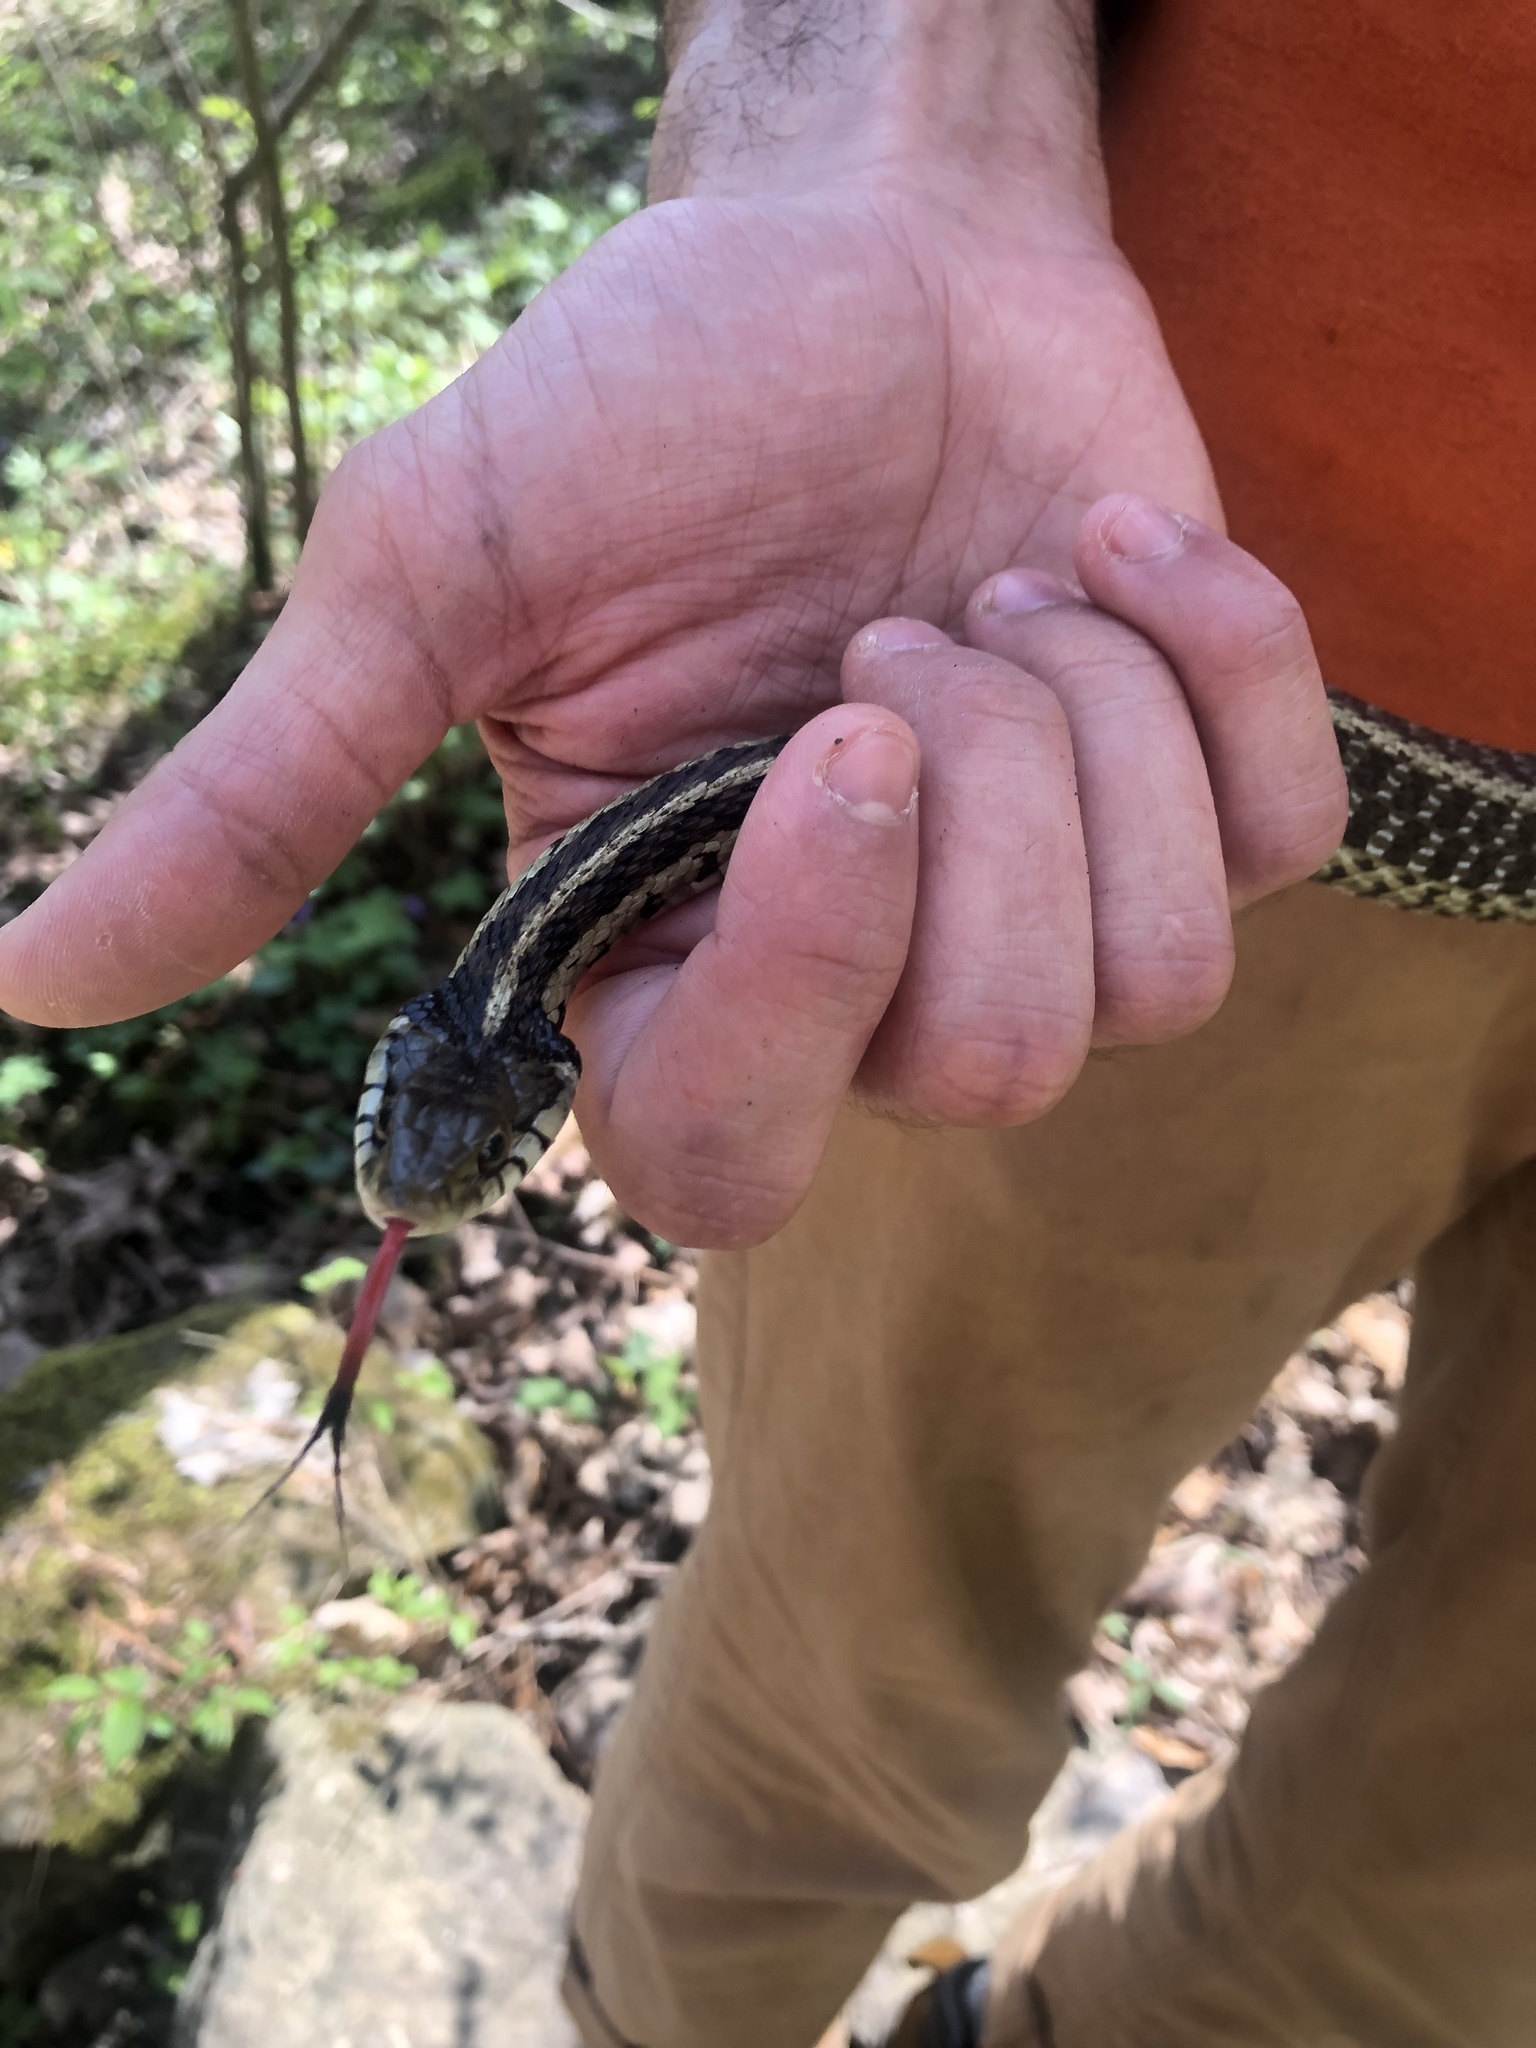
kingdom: Animalia
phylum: Chordata
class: Squamata
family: Colubridae
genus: Thamnophis
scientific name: Thamnophis sirtalis
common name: Common garter snake
